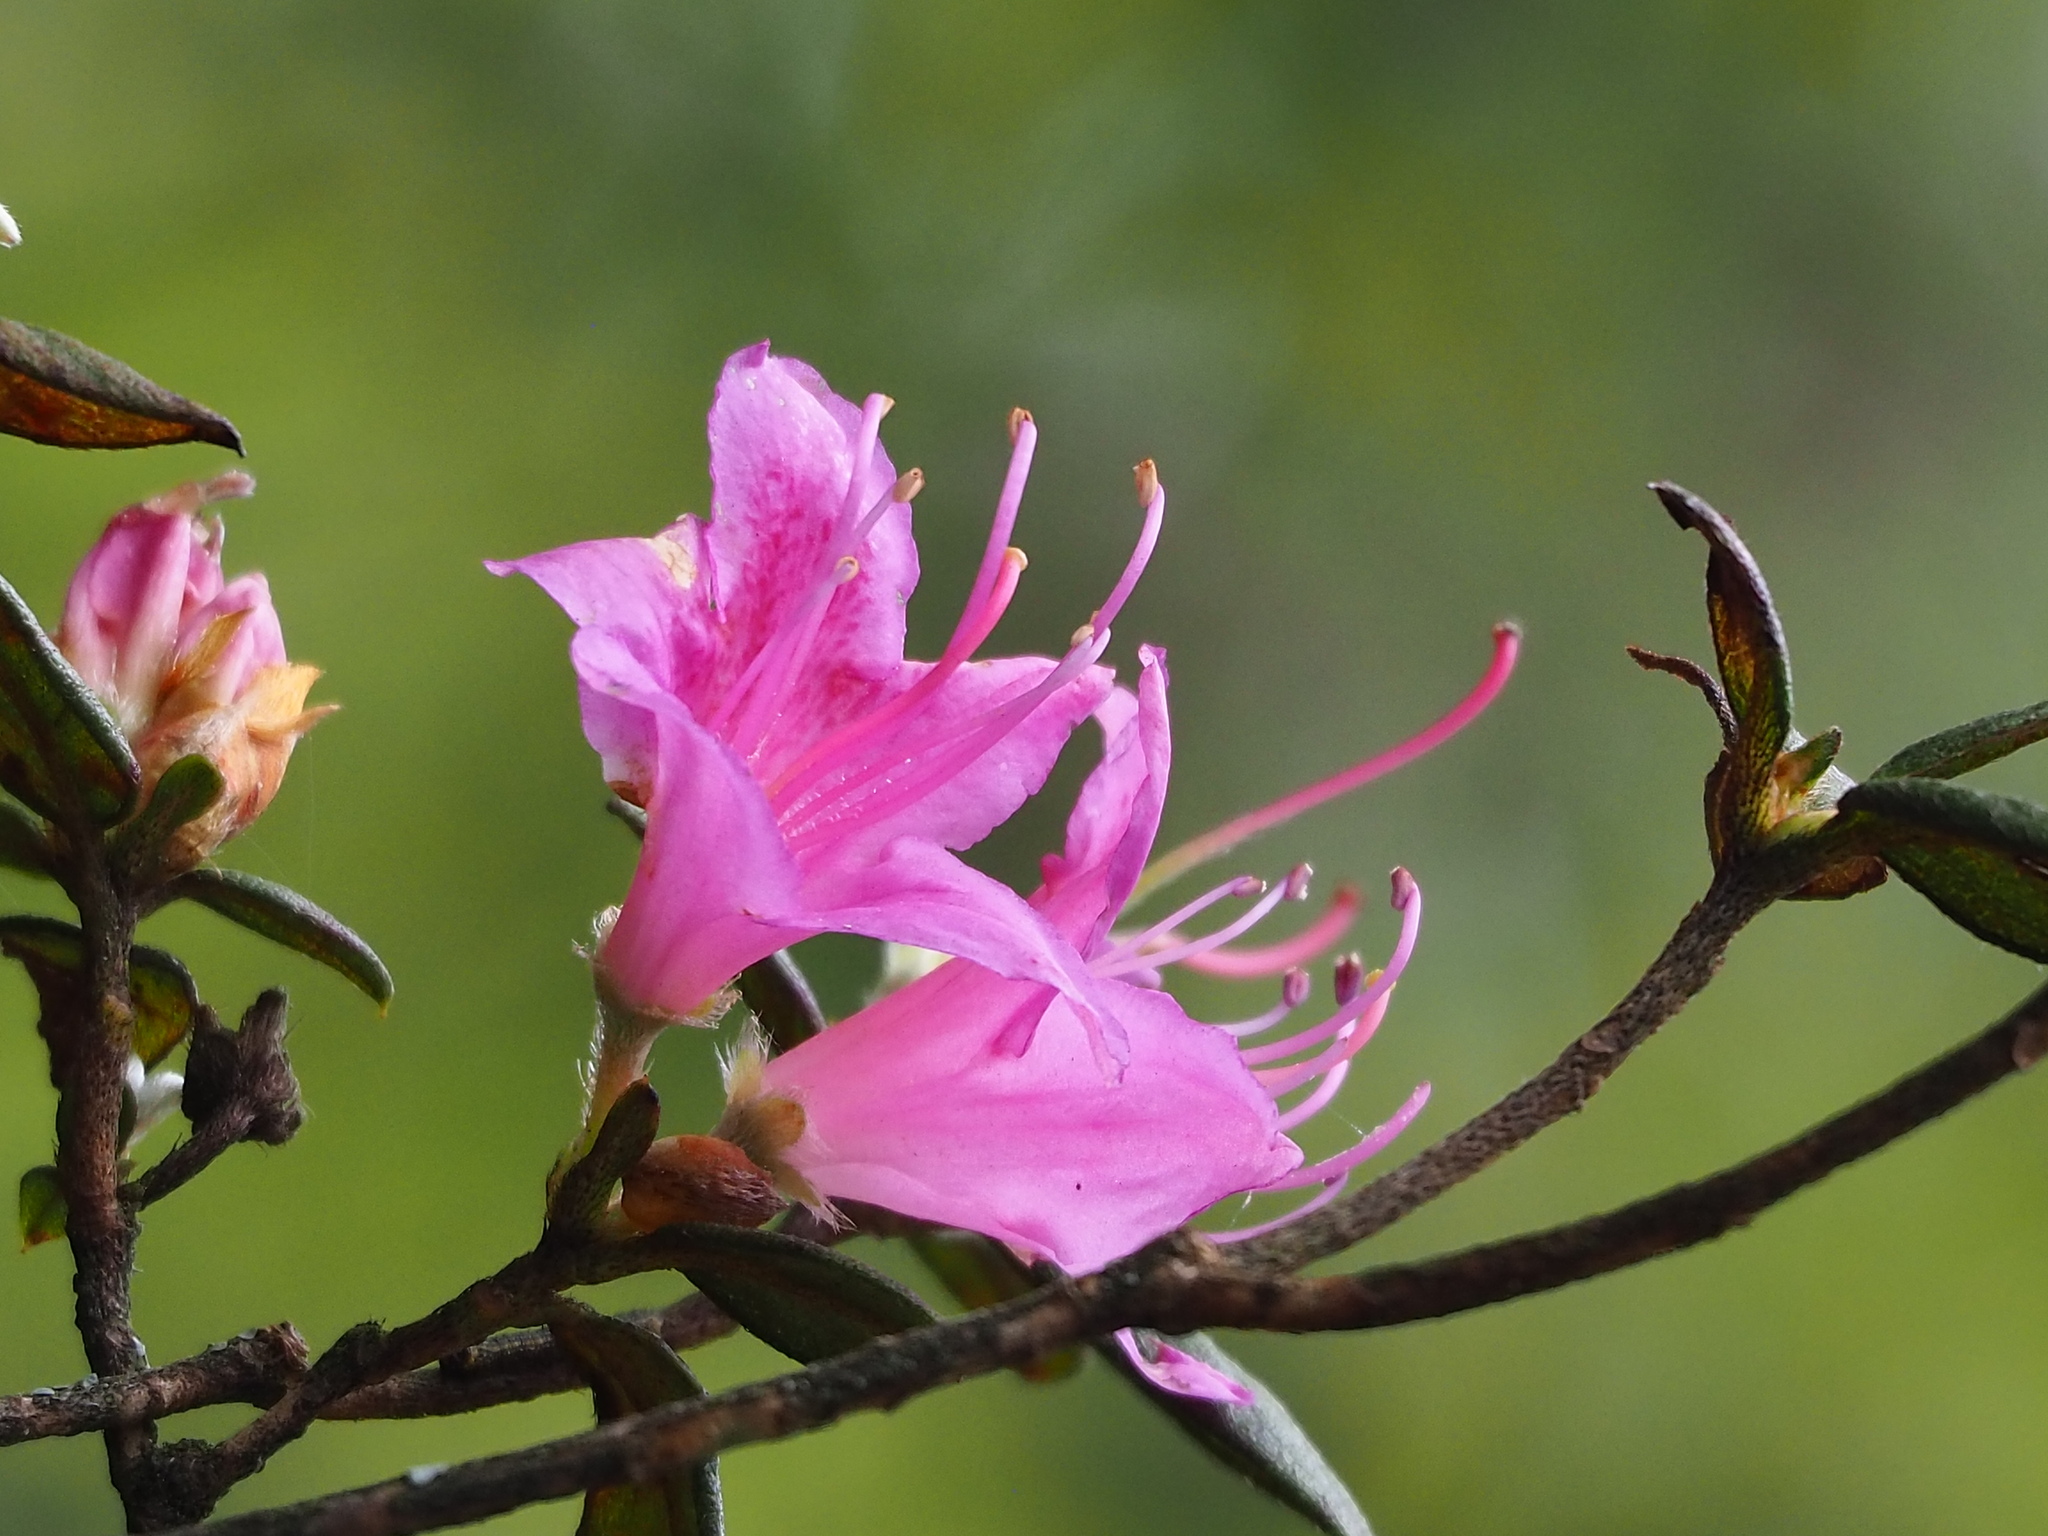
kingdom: Plantae
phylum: Tracheophyta
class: Magnoliopsida
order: Ericales
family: Ericaceae
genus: Rhododendron
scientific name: Rhododendron rubropilosum
